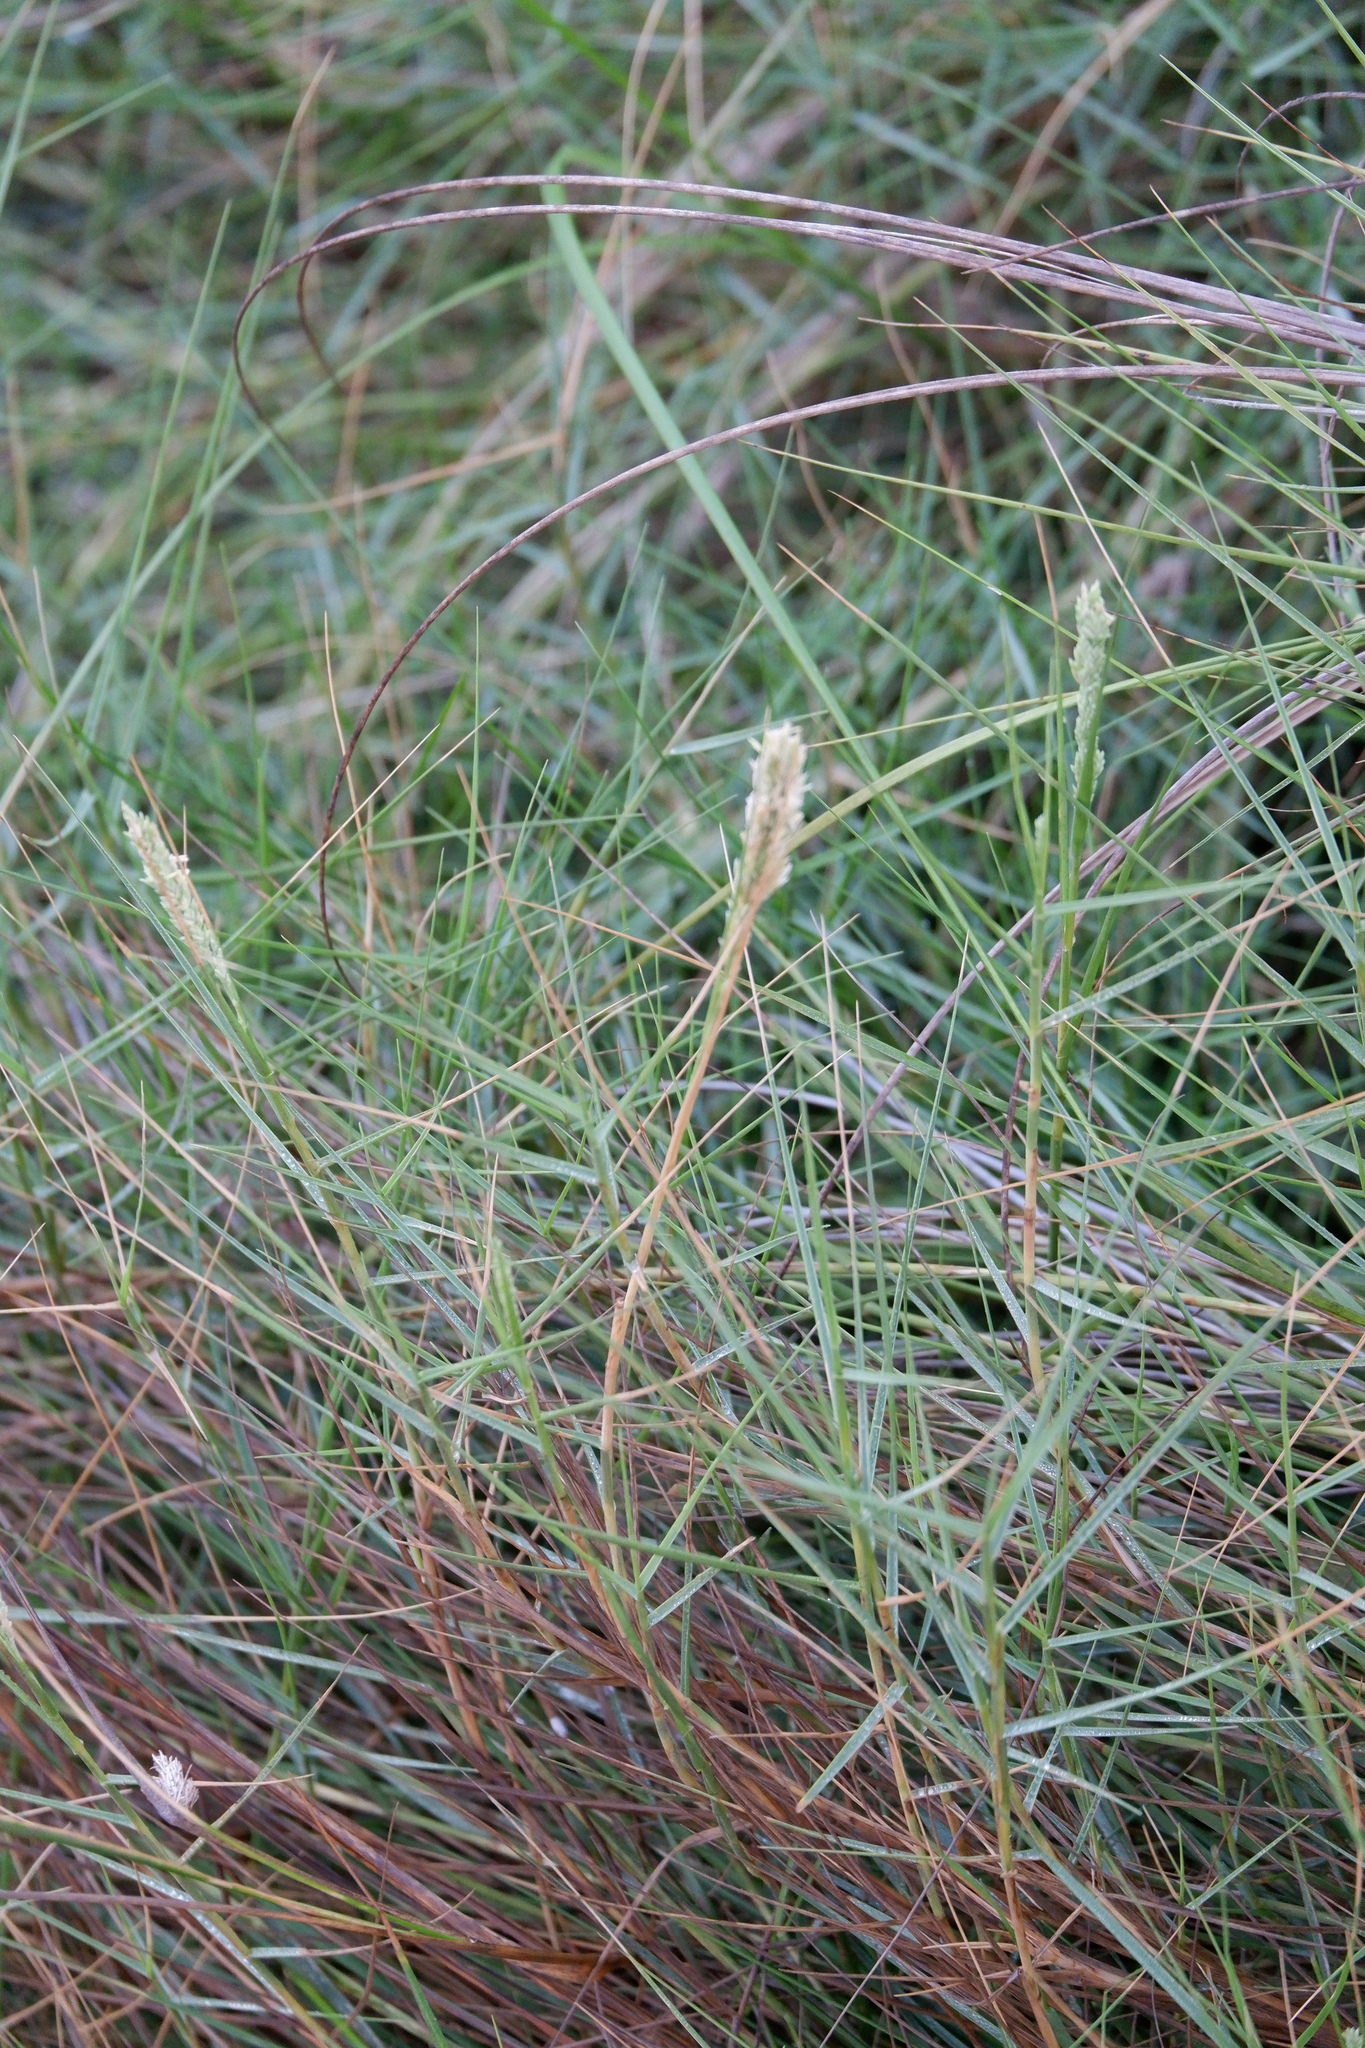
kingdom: Plantae
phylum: Tracheophyta
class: Liliopsida
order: Poales
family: Poaceae
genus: Distichlis
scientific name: Distichlis spicata
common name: Saltgrass
